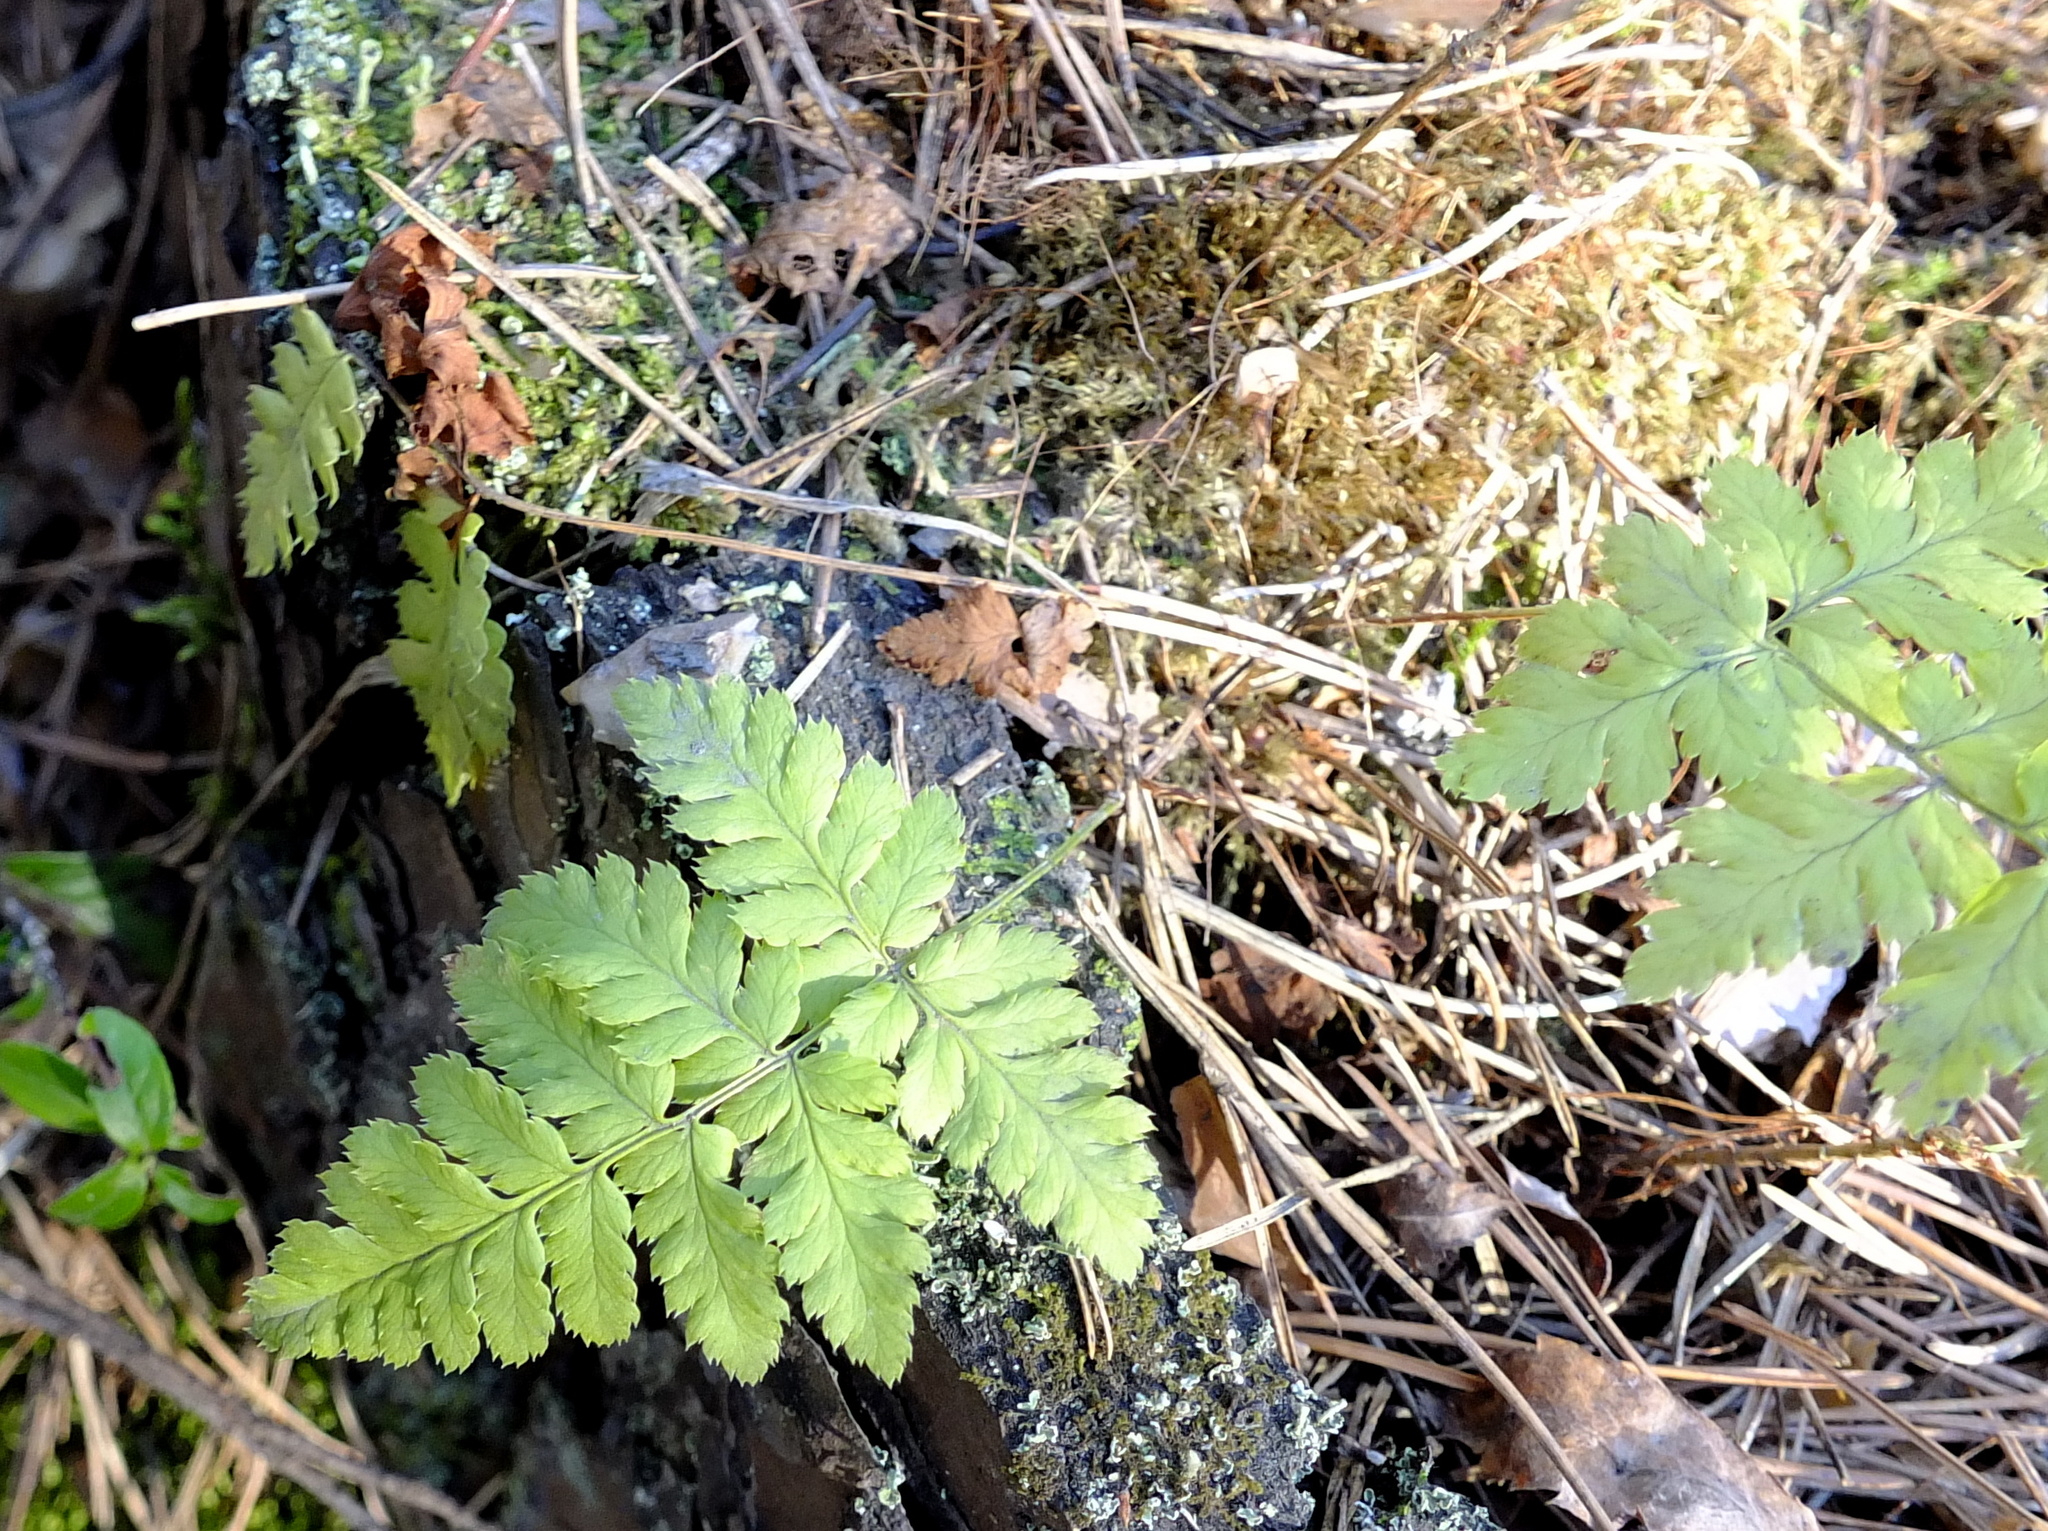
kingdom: Plantae
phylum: Tracheophyta
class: Polypodiopsida
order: Polypodiales
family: Dryopteridaceae
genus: Dryopteris
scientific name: Dryopteris carthusiana
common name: Narrow buckler-fern
